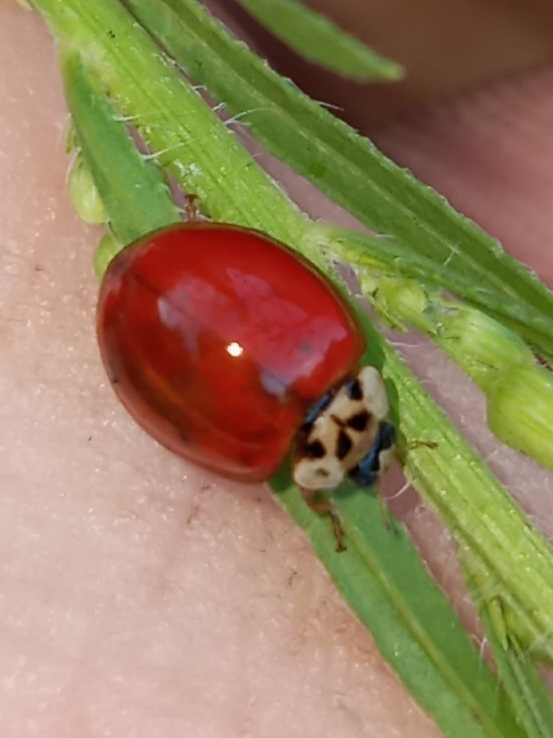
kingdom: Animalia
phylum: Arthropoda
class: Insecta
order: Coleoptera
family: Coccinellidae
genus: Harmonia
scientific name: Harmonia axyridis
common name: Harlequin ladybird
